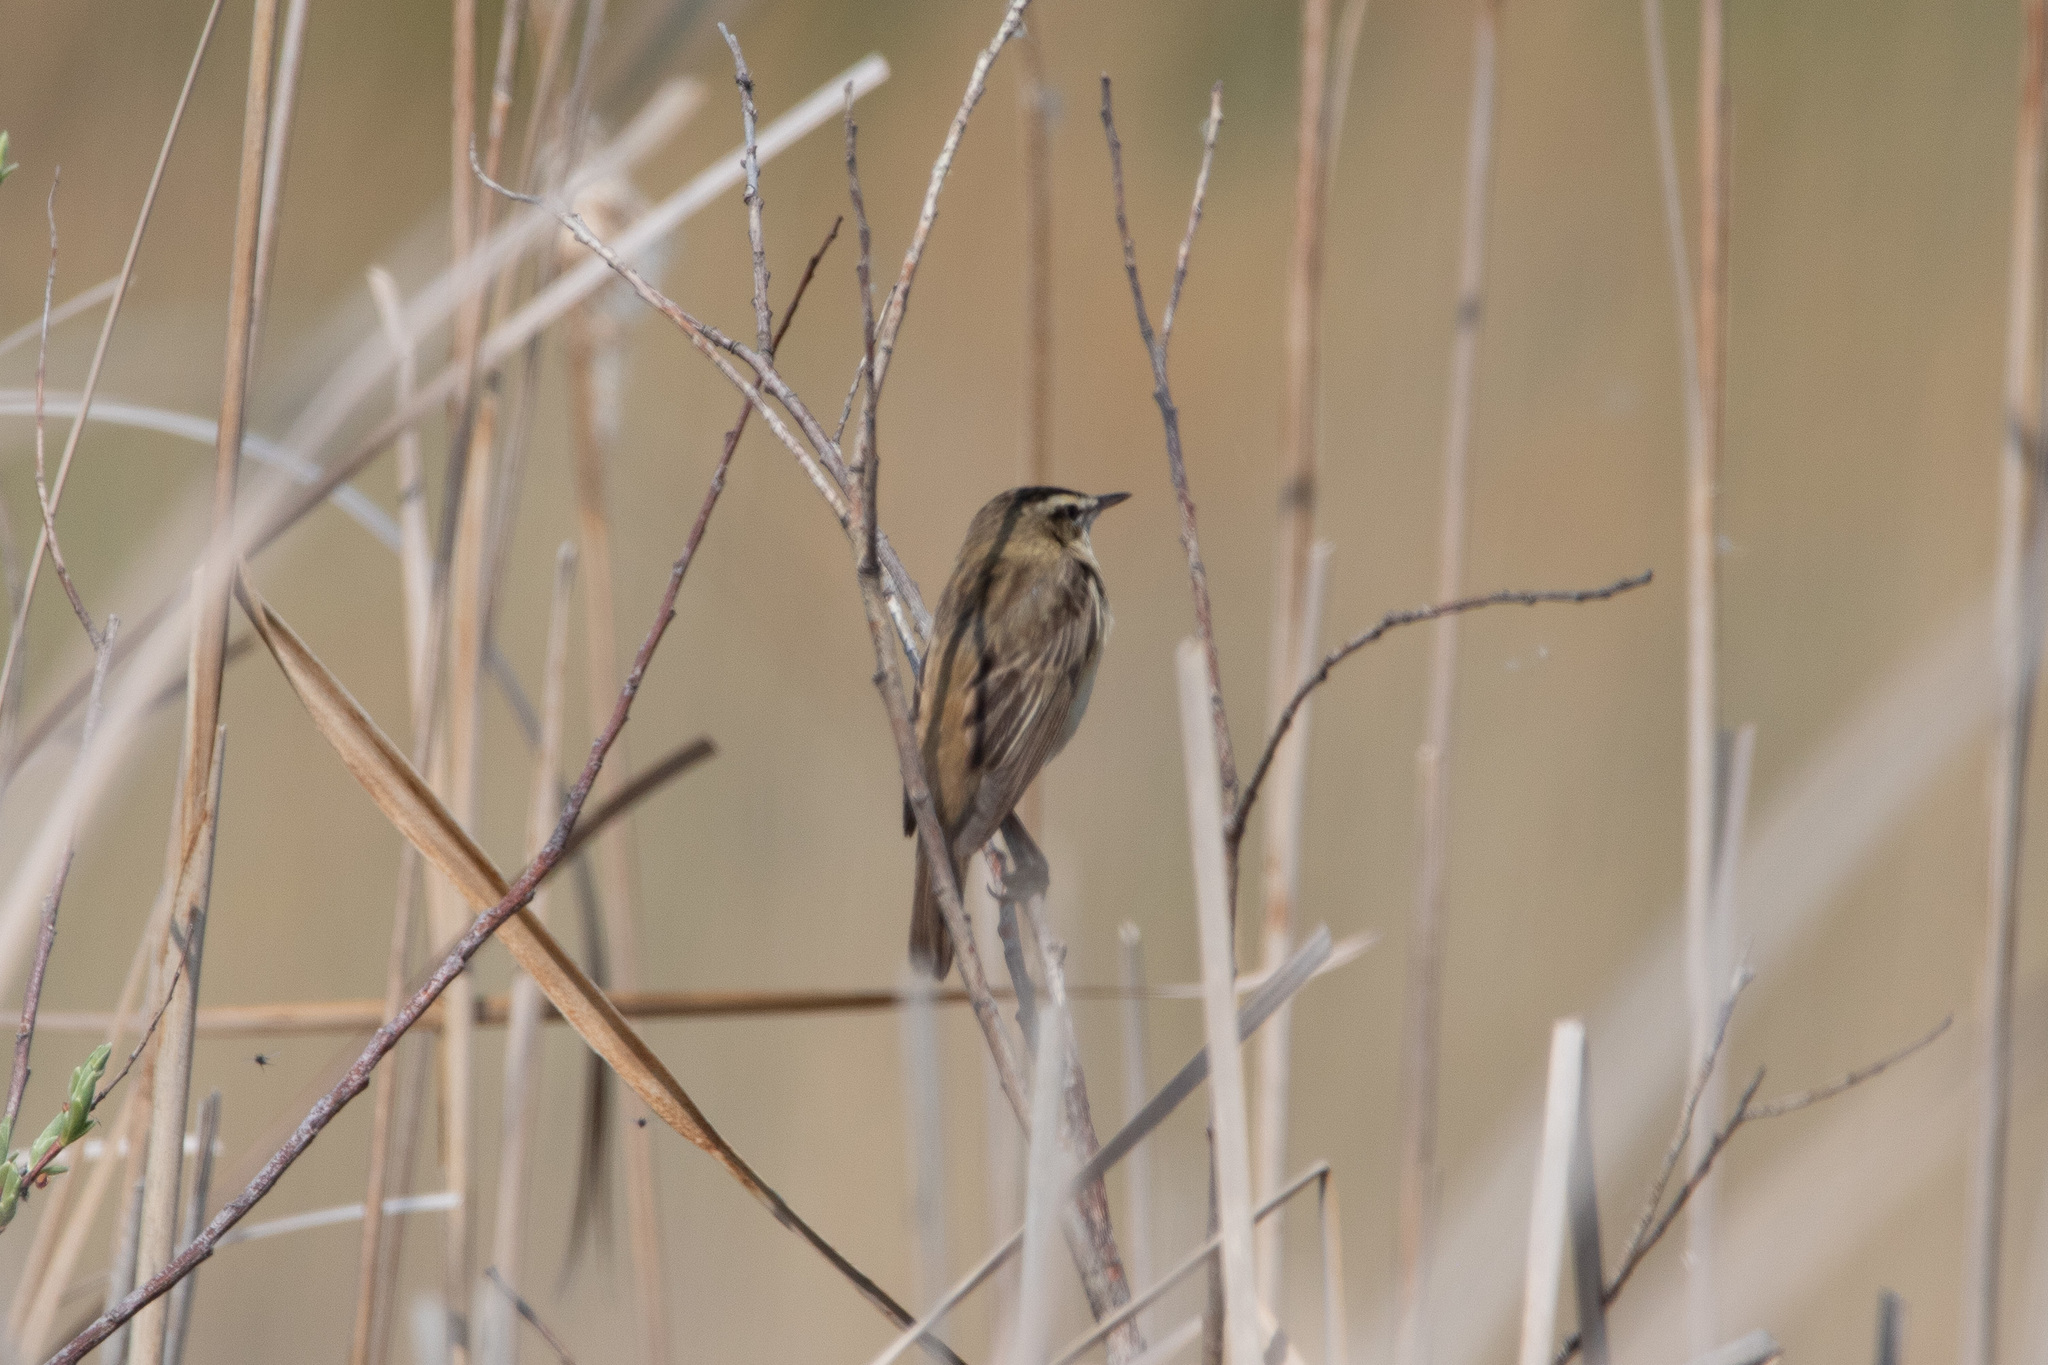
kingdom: Animalia
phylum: Chordata
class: Aves
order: Passeriformes
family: Acrocephalidae
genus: Acrocephalus
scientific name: Acrocephalus schoenobaenus
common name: Sedge warbler
